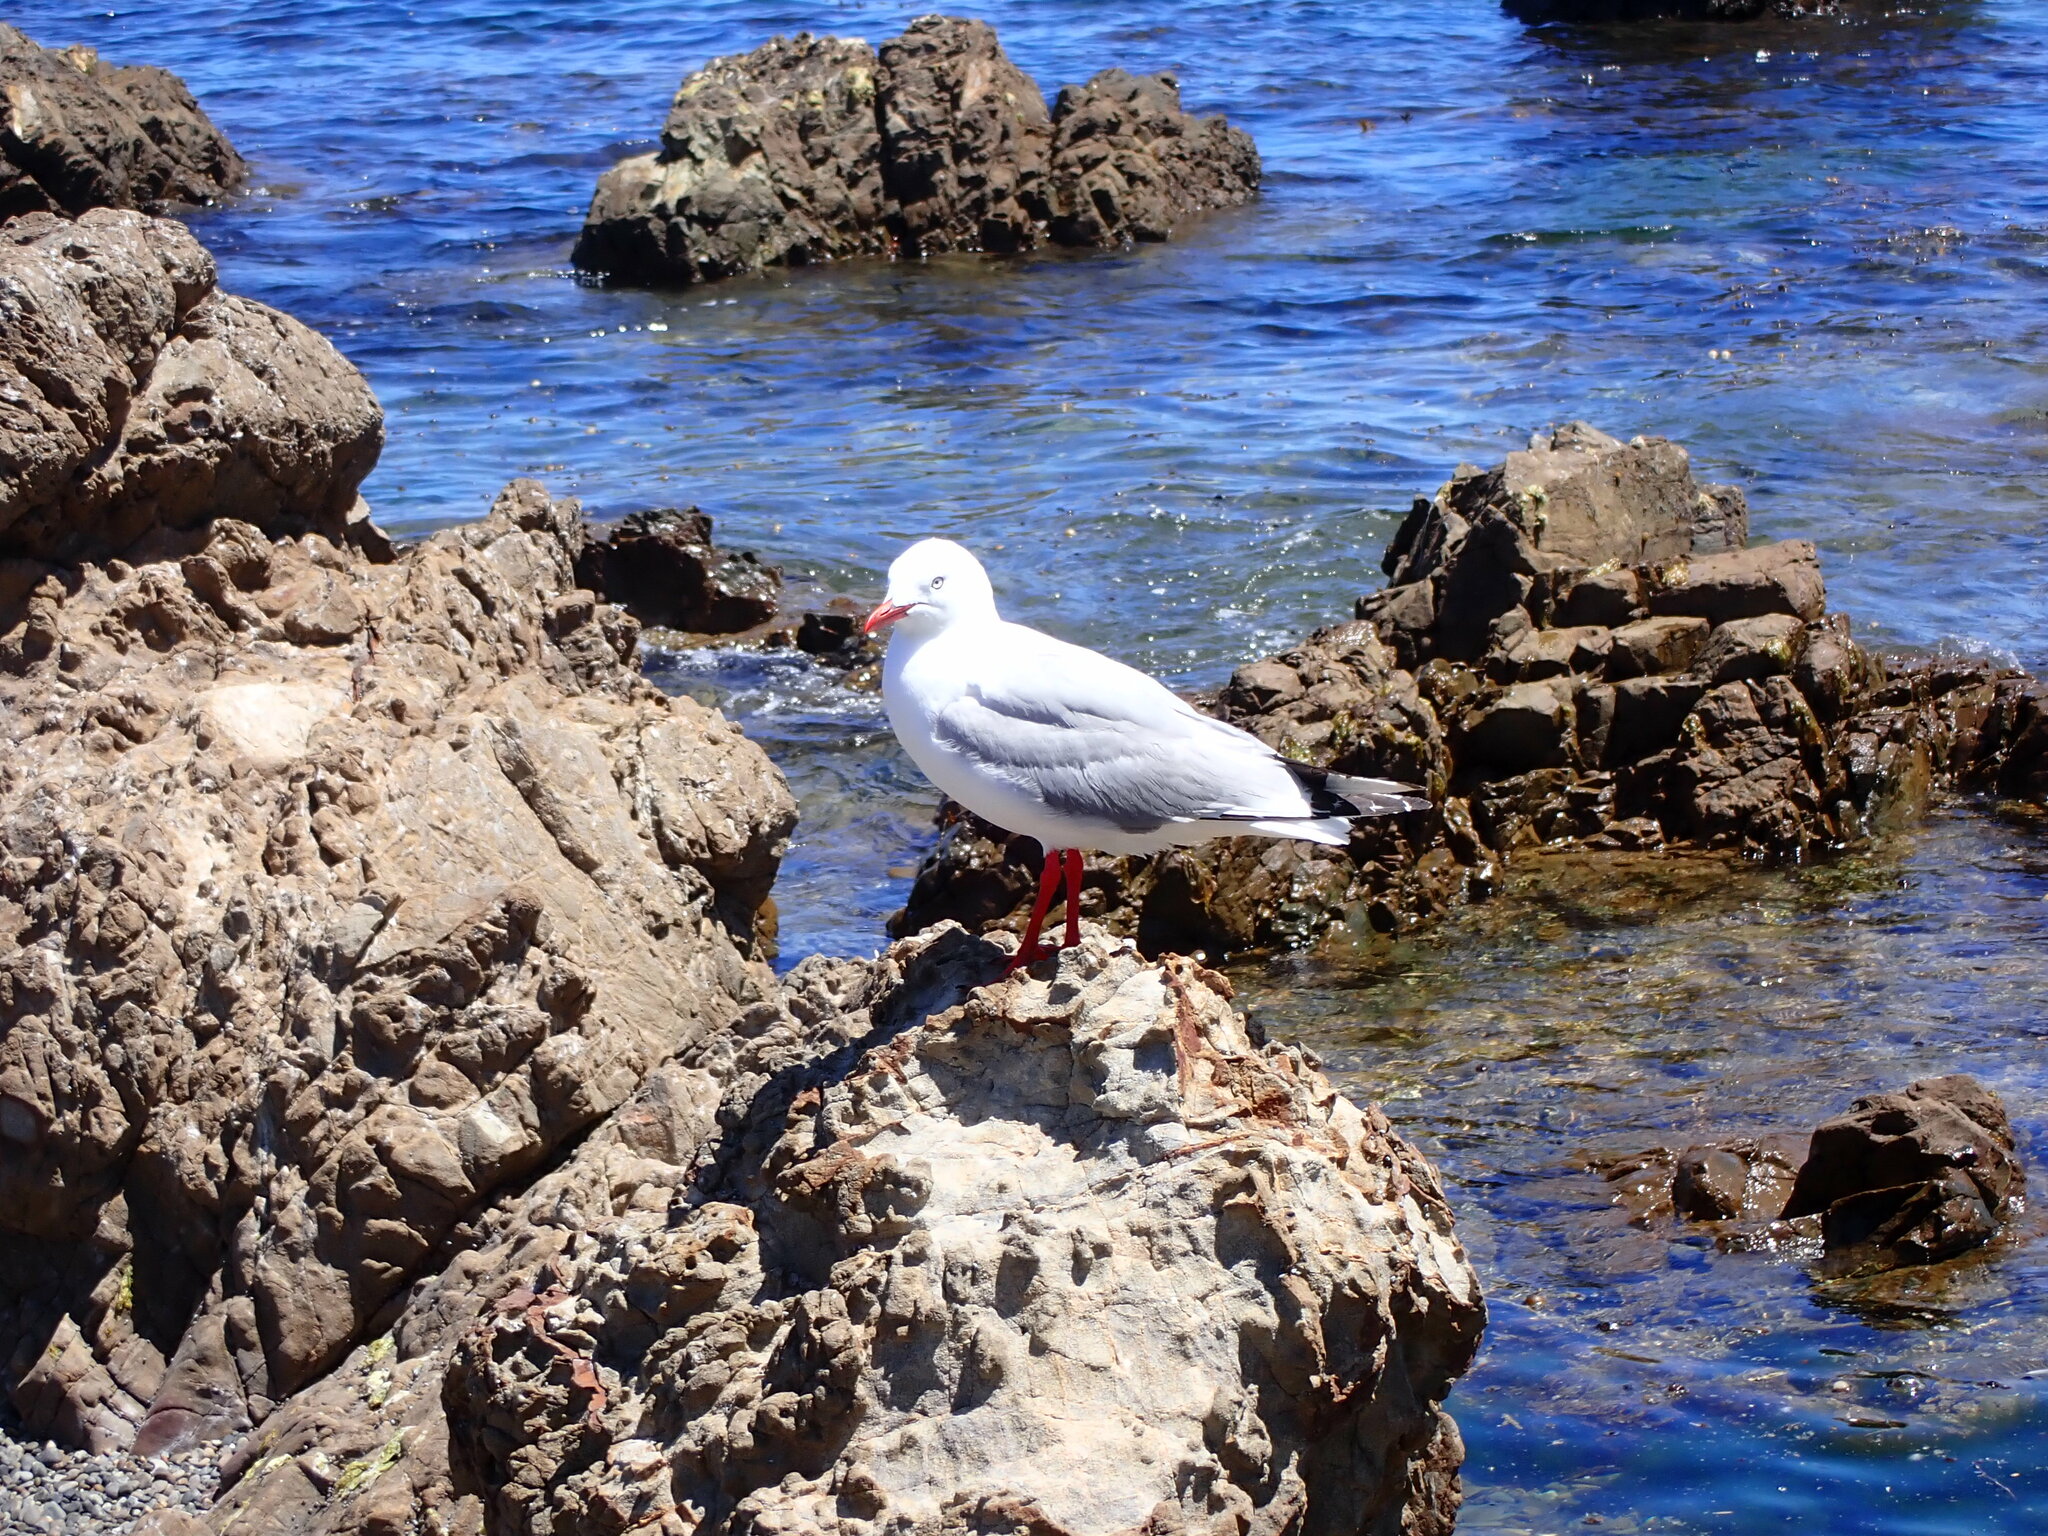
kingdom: Animalia
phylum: Chordata
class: Aves
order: Charadriiformes
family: Laridae
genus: Chroicocephalus
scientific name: Chroicocephalus novaehollandiae
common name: Silver gull
